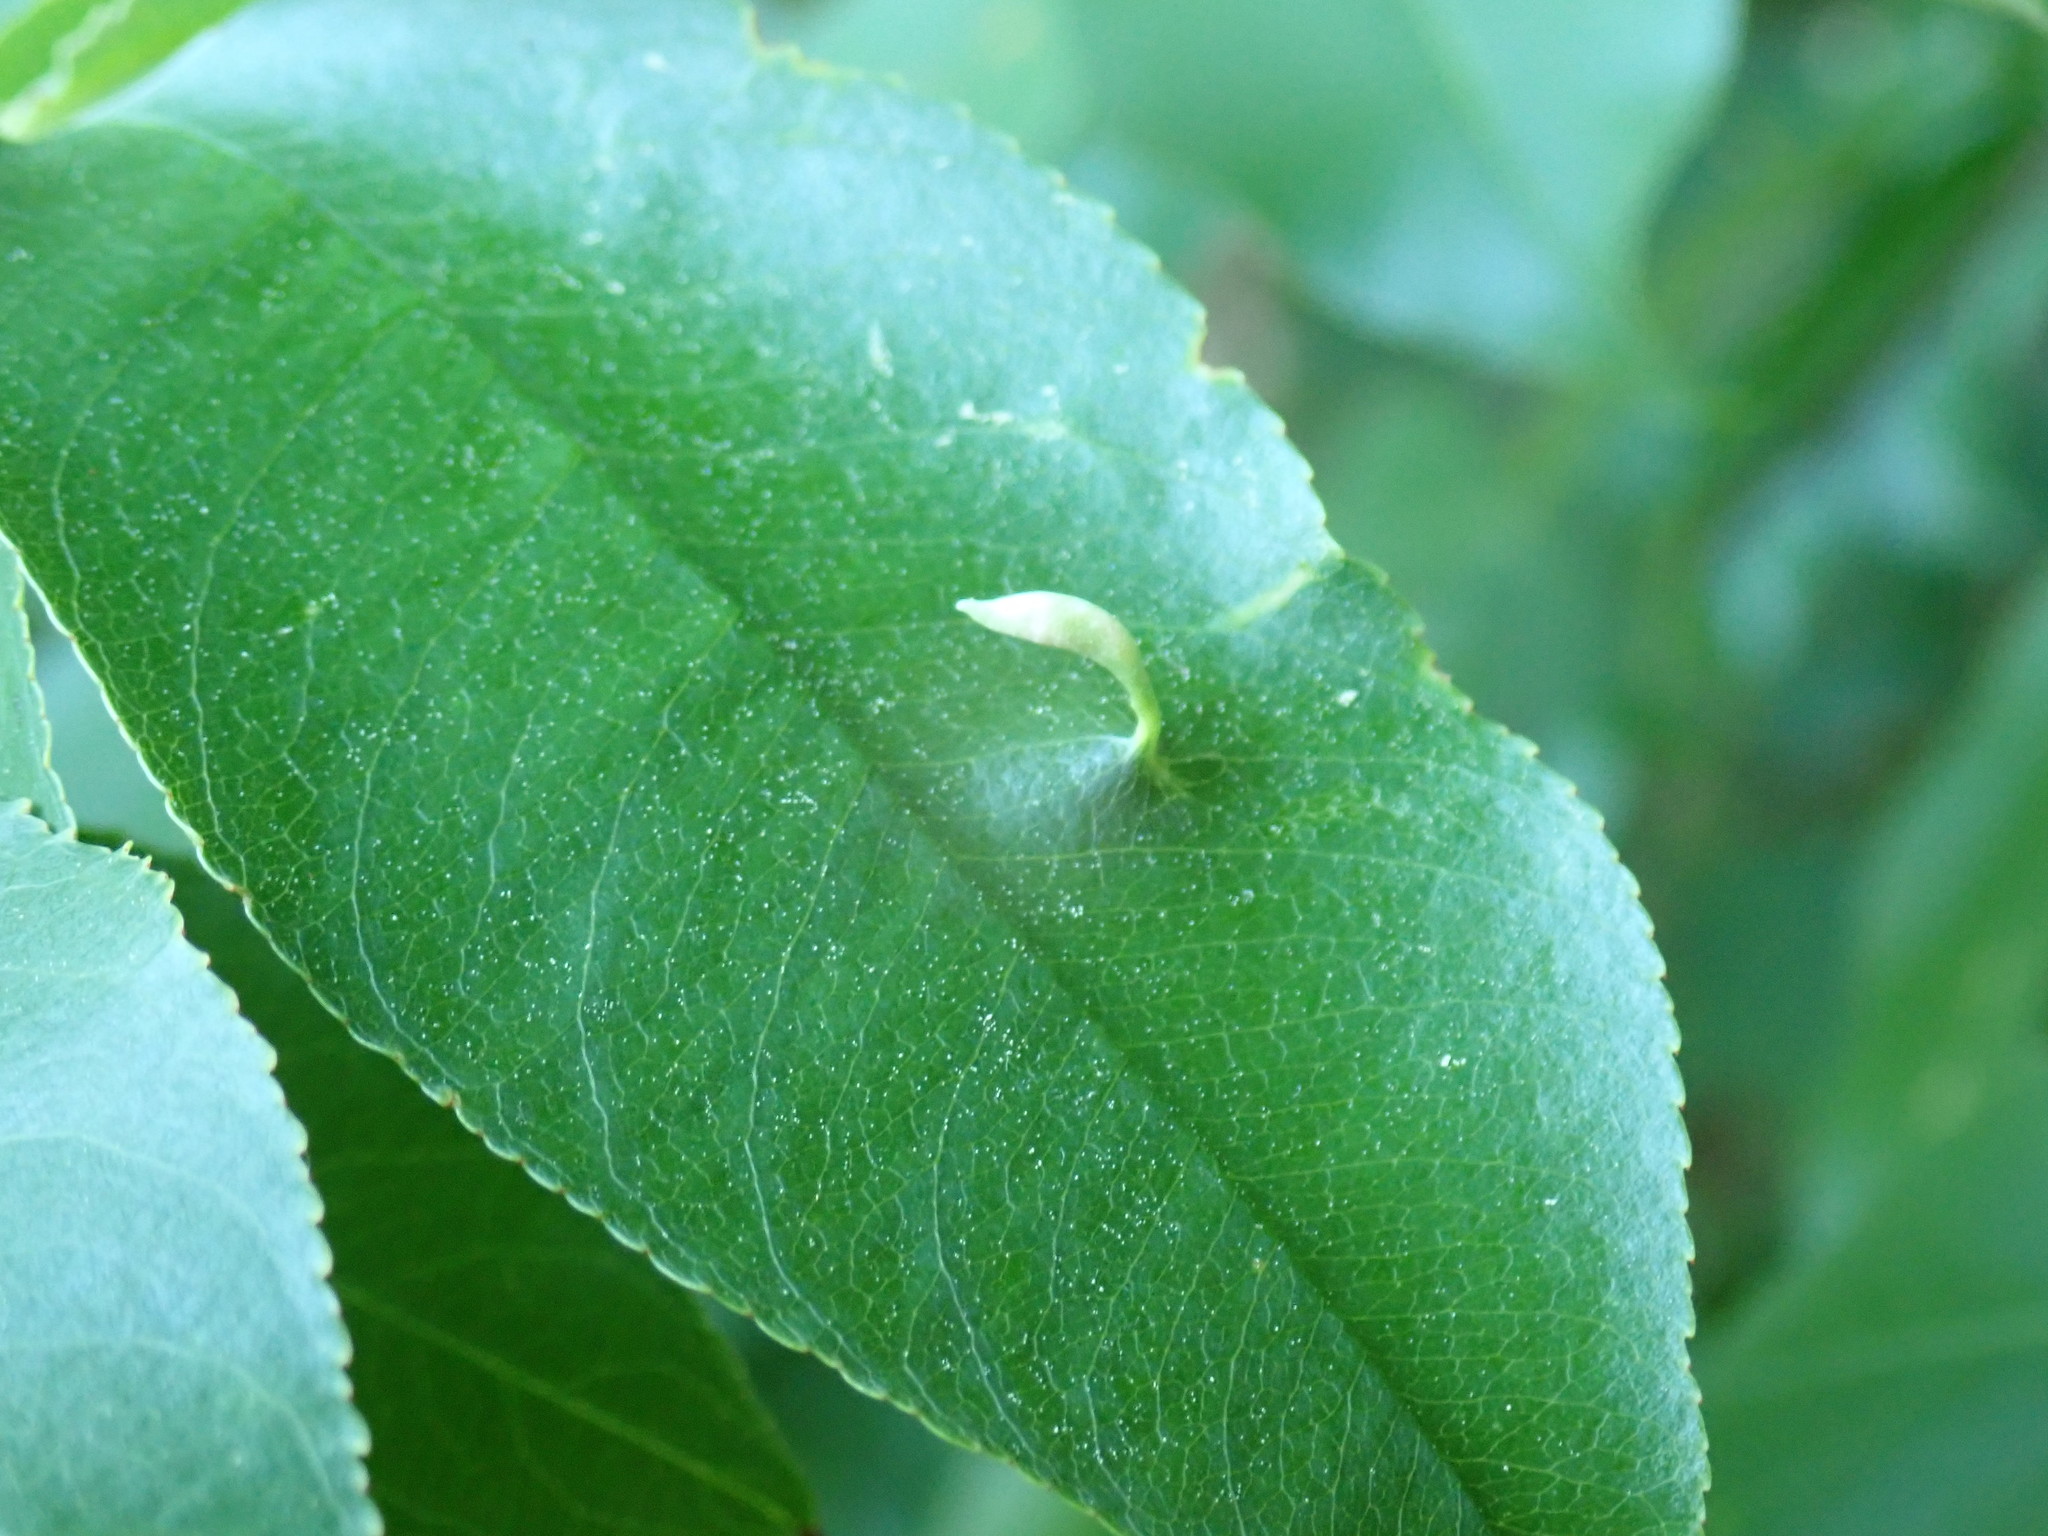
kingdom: Animalia
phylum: Arthropoda
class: Arachnida
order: Trombidiformes
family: Eriophyidae
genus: Eriophyes
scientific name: Eriophyes
